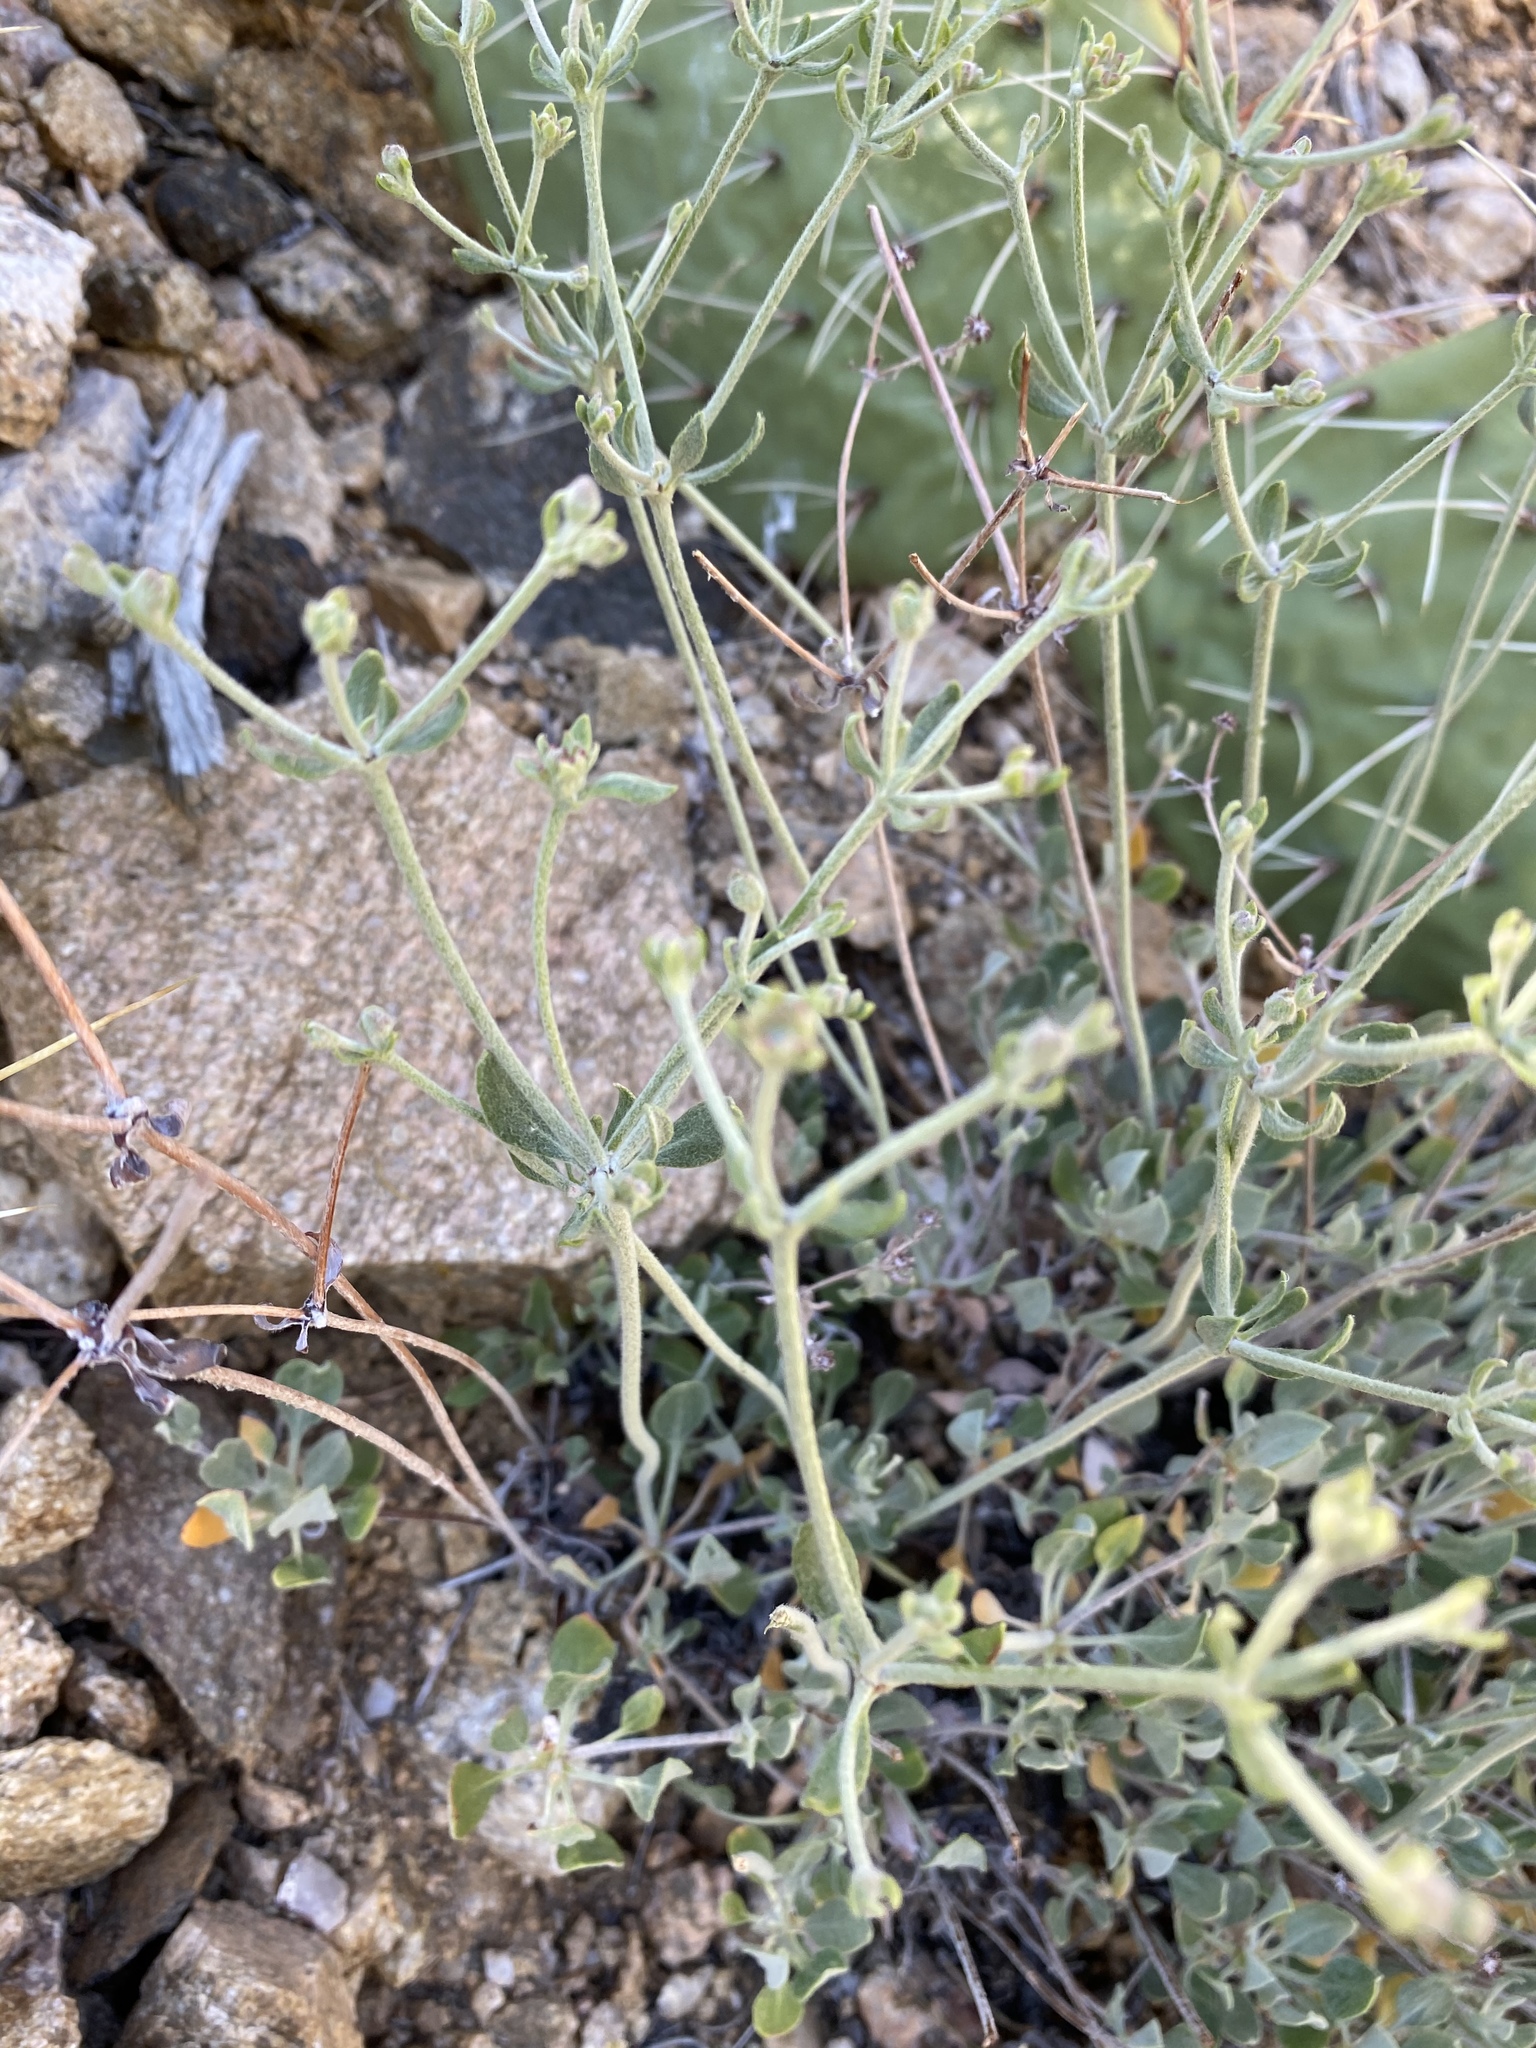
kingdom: Plantae
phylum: Tracheophyta
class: Magnoliopsida
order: Caryophyllales
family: Polygonaceae
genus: Eriogonum
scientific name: Eriogonum umbellatum
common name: Sulfur-buckwheat
